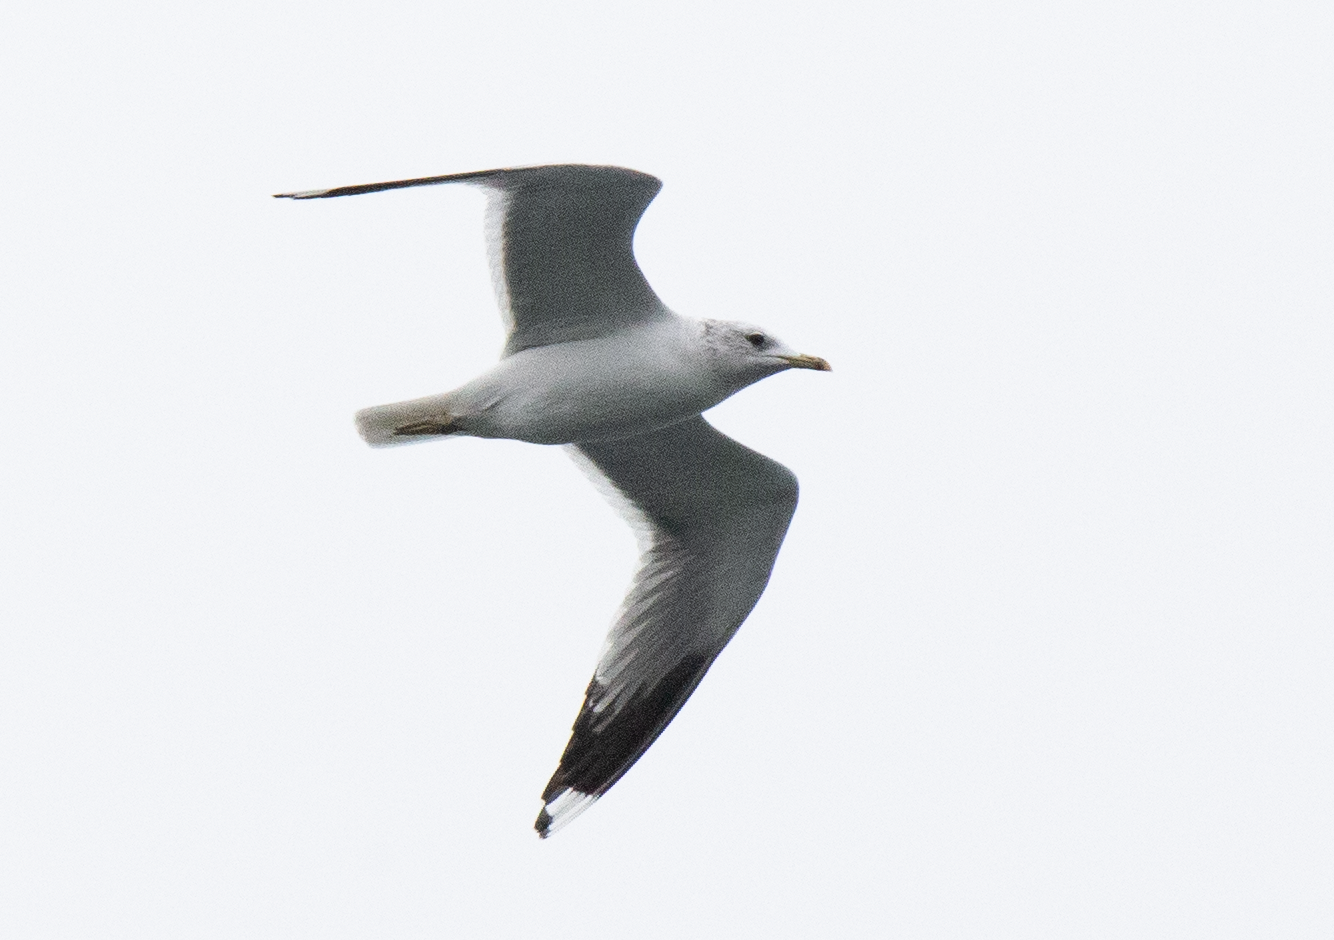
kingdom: Animalia
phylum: Chordata
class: Aves
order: Charadriiformes
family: Laridae
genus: Larus
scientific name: Larus canus
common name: Mew gull
